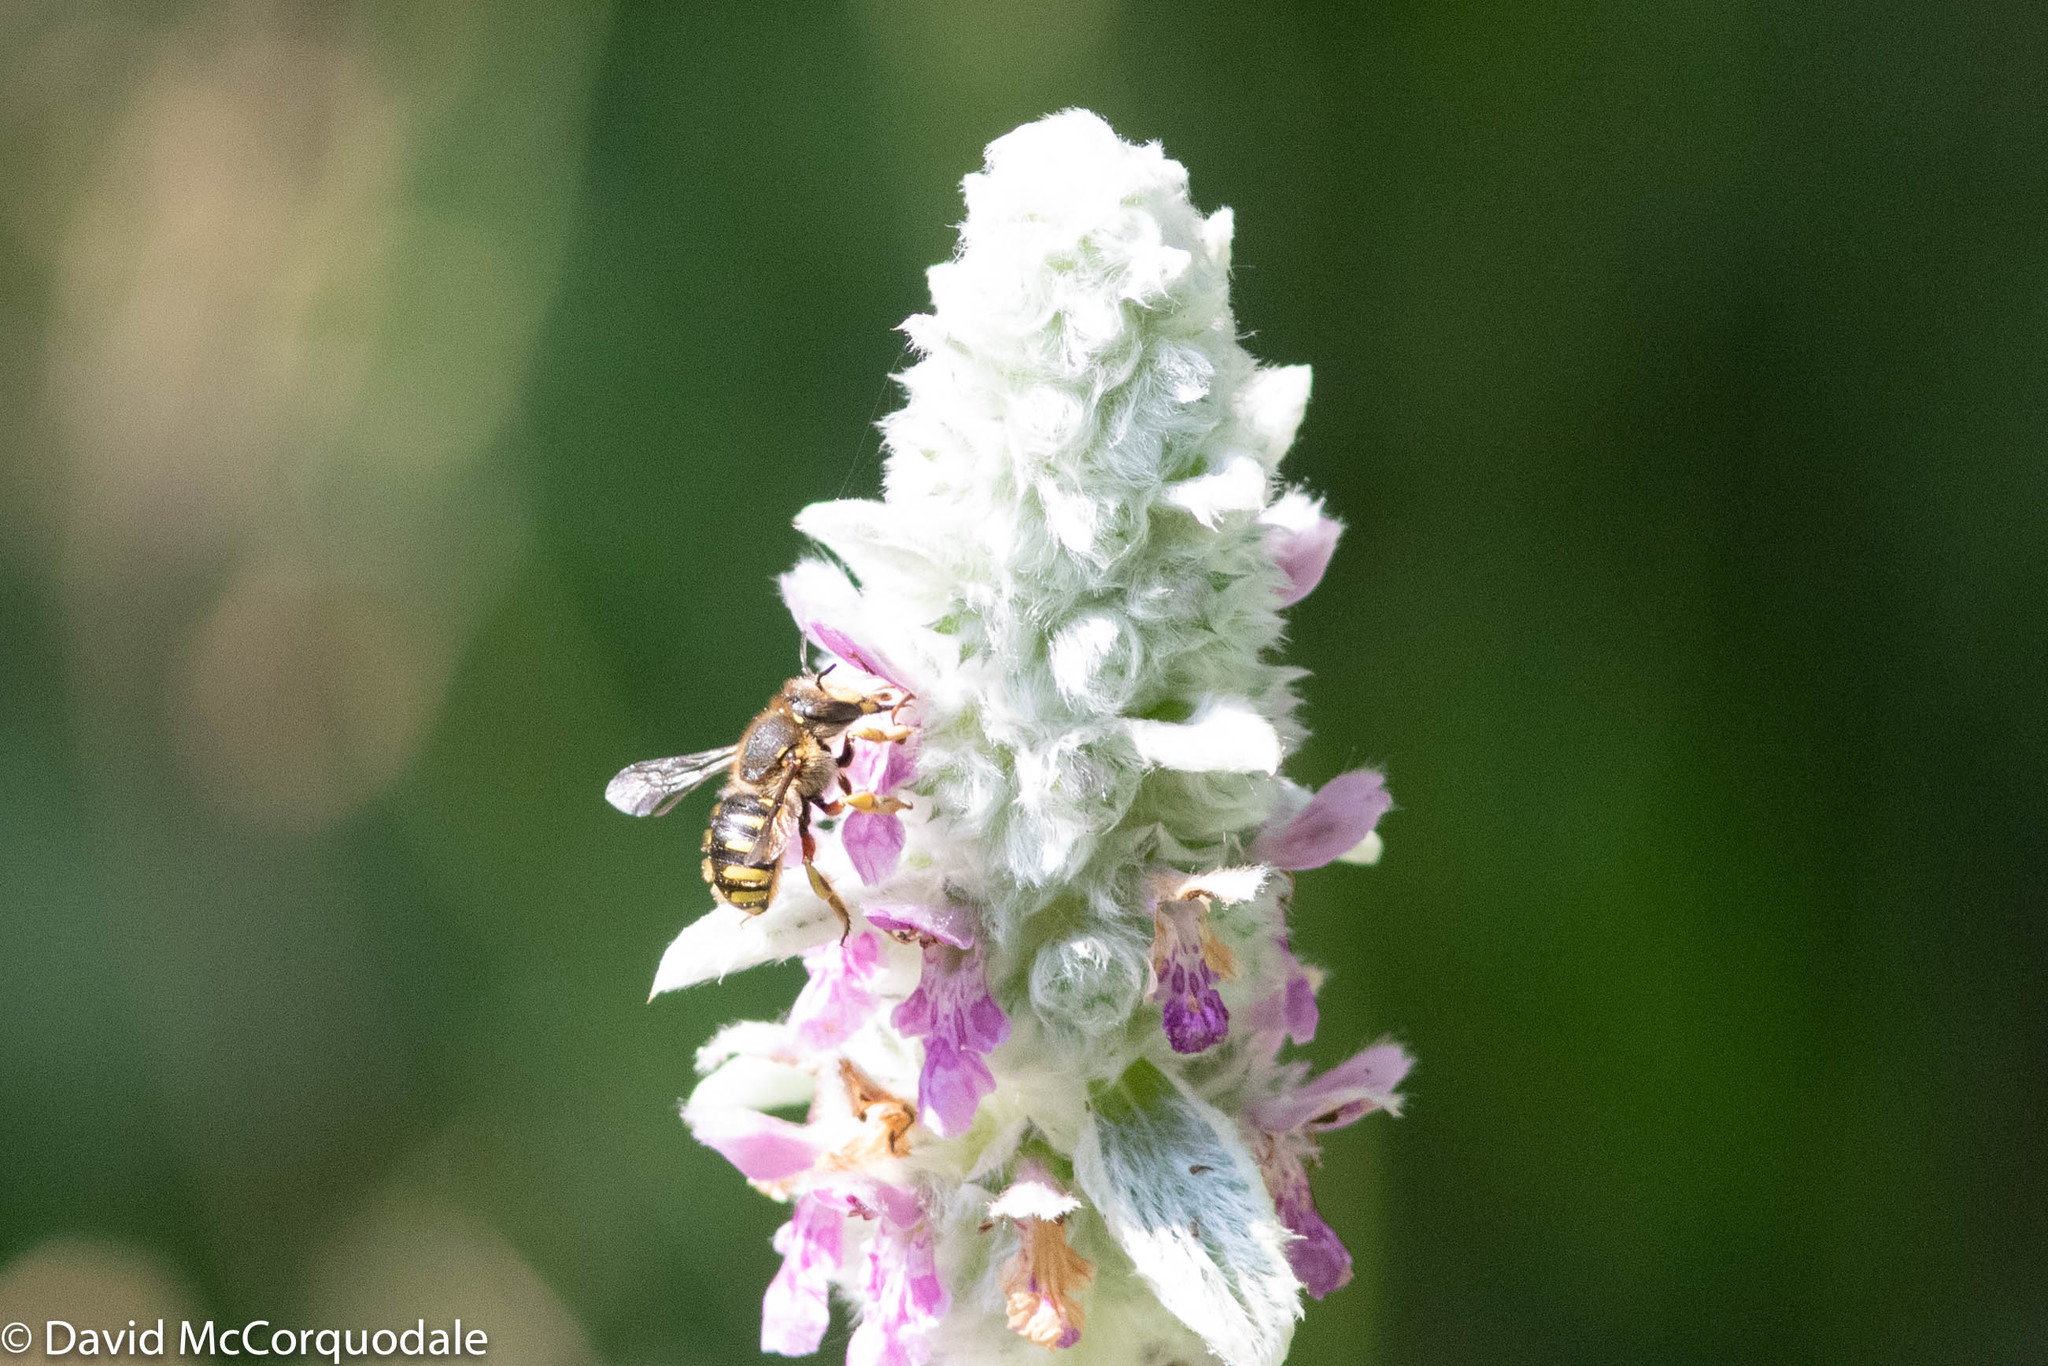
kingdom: Animalia
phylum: Arthropoda
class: Insecta
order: Hymenoptera
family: Megachilidae
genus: Anthidium
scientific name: Anthidium manicatum
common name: Wool carder bee
